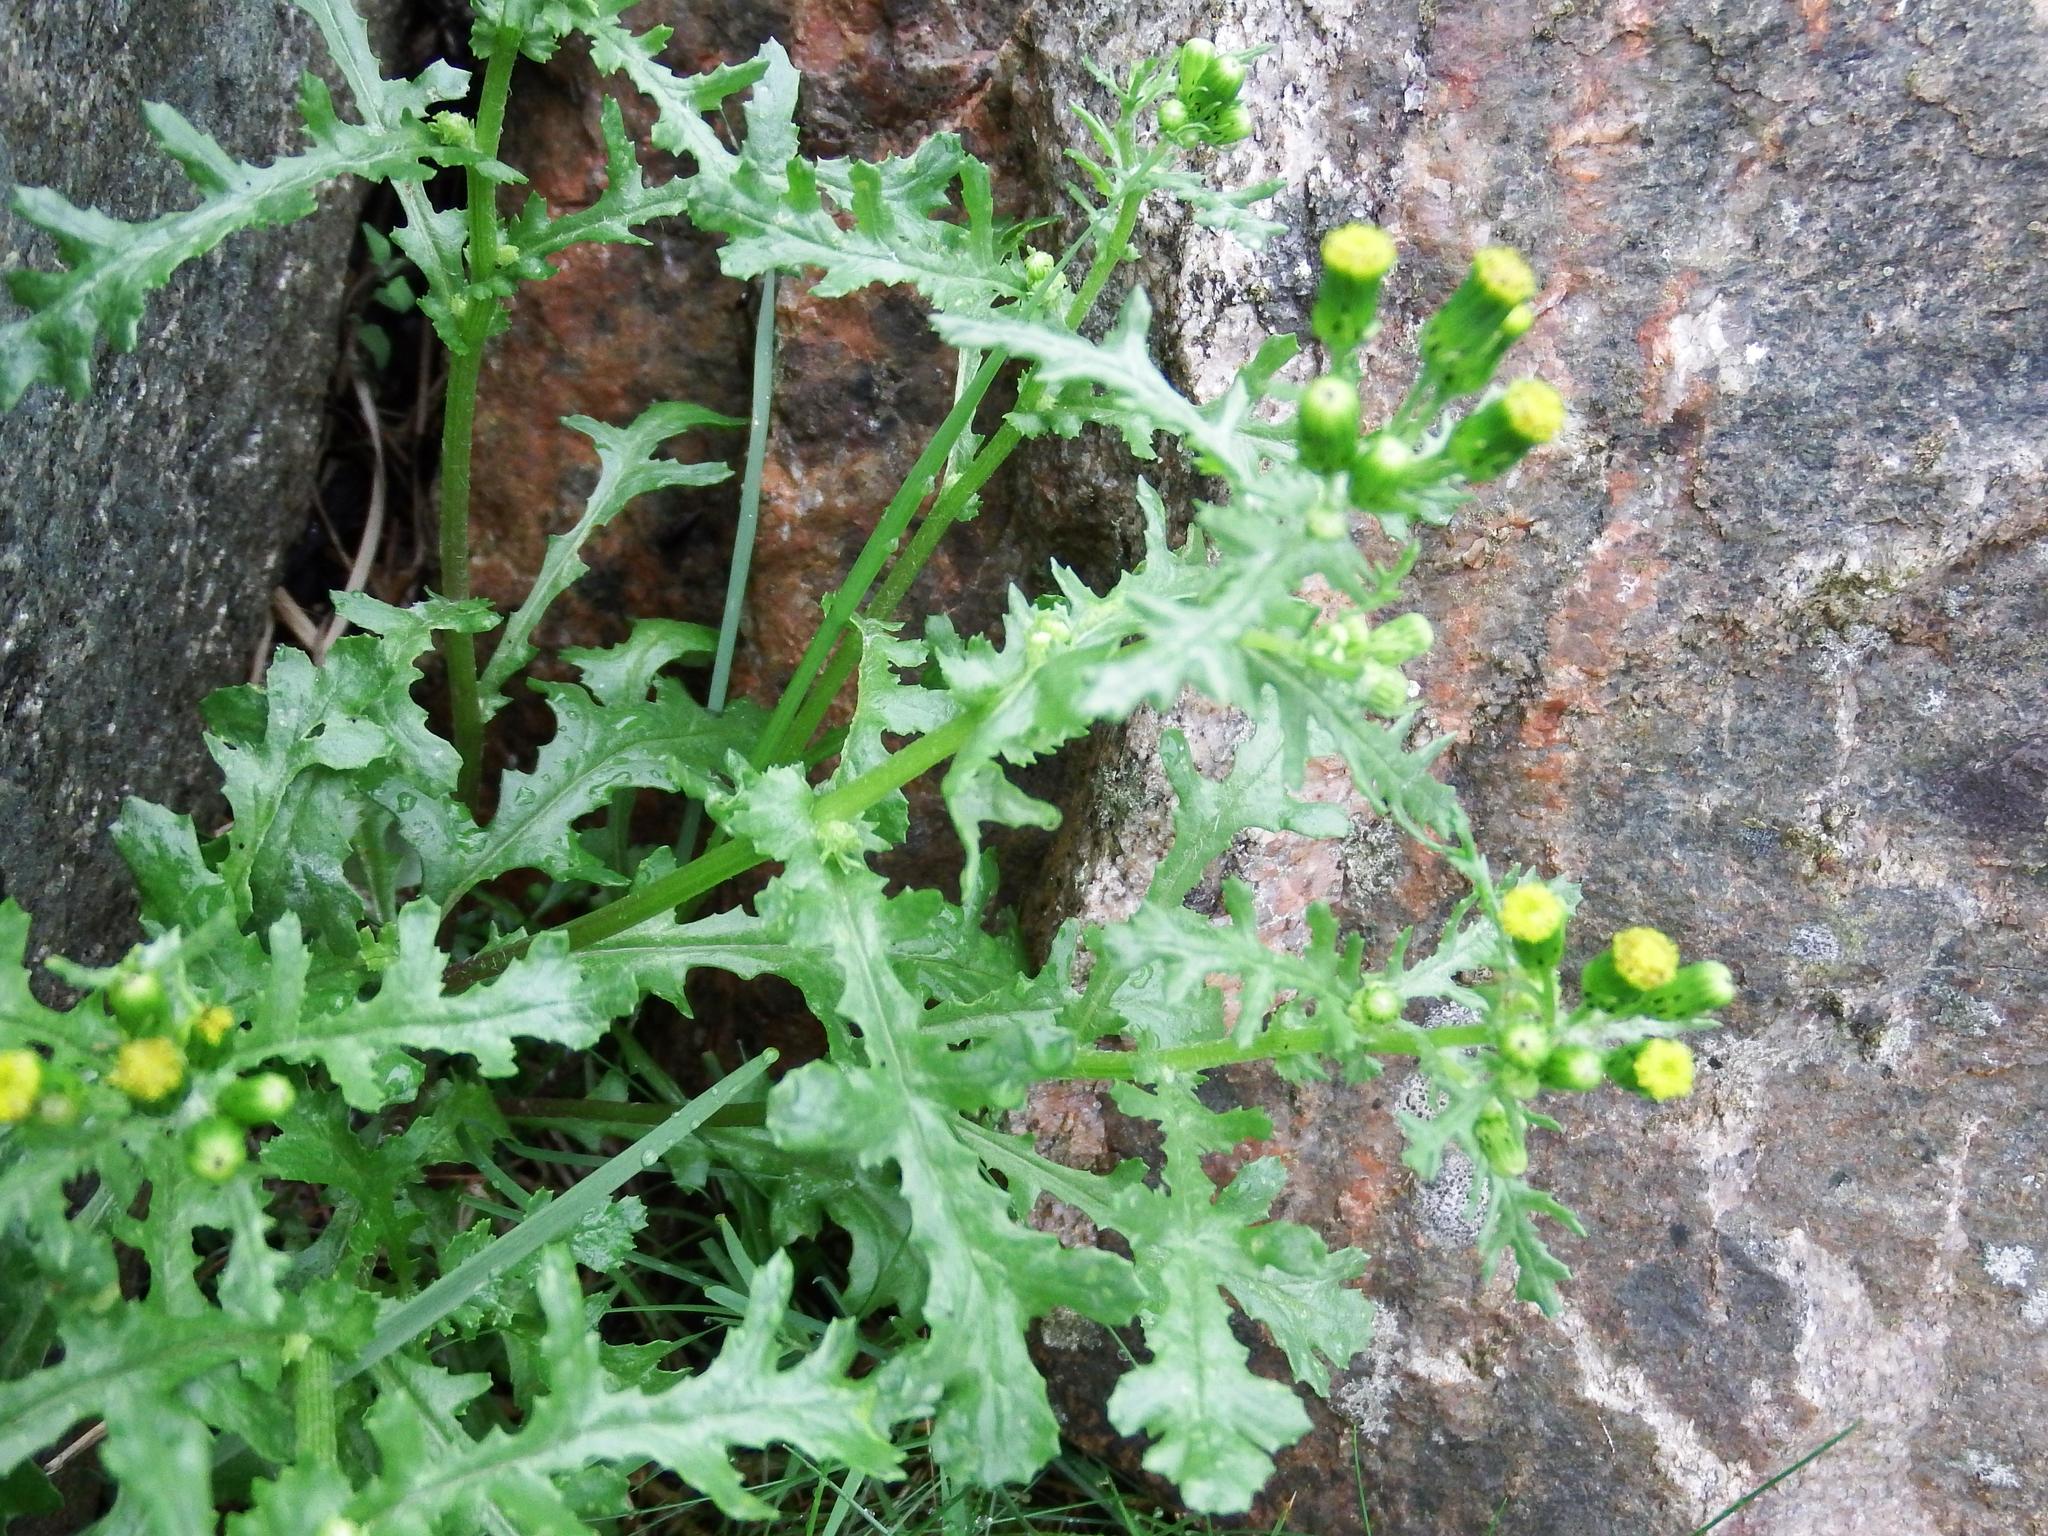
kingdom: Plantae
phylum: Tracheophyta
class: Magnoliopsida
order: Asterales
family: Asteraceae
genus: Senecio
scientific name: Senecio vulgaris
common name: Old-man-in-the-spring
